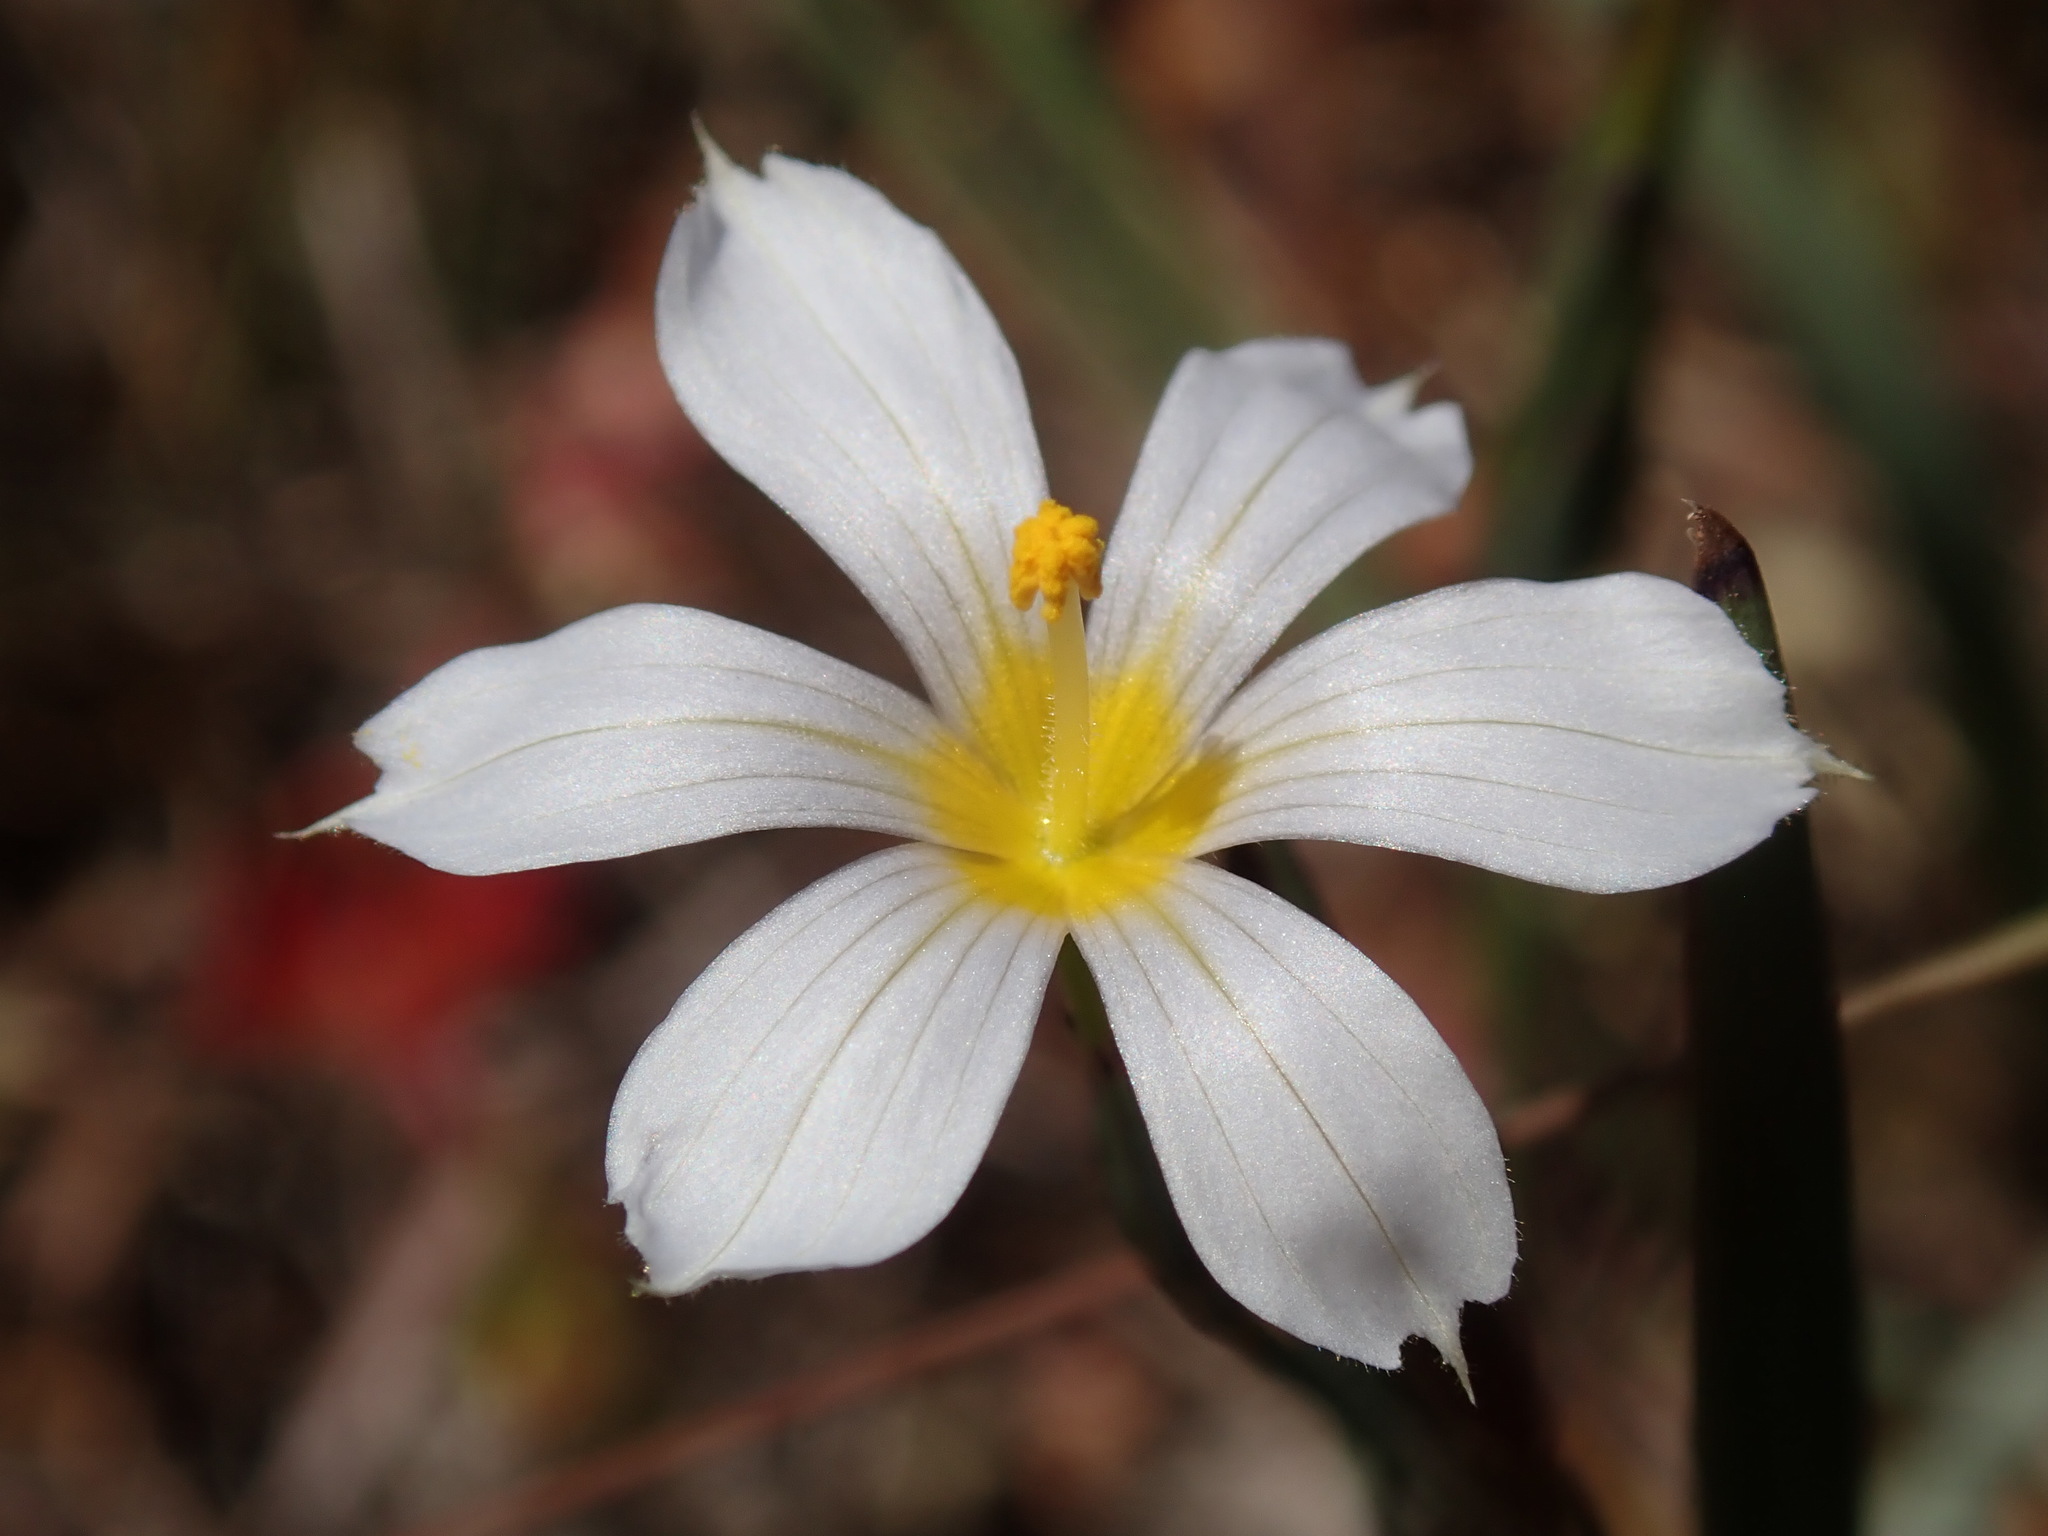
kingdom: Plantae
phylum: Tracheophyta
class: Liliopsida
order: Asparagales
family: Iridaceae
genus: Sisyrinchium
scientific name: Sisyrinchium bellum
